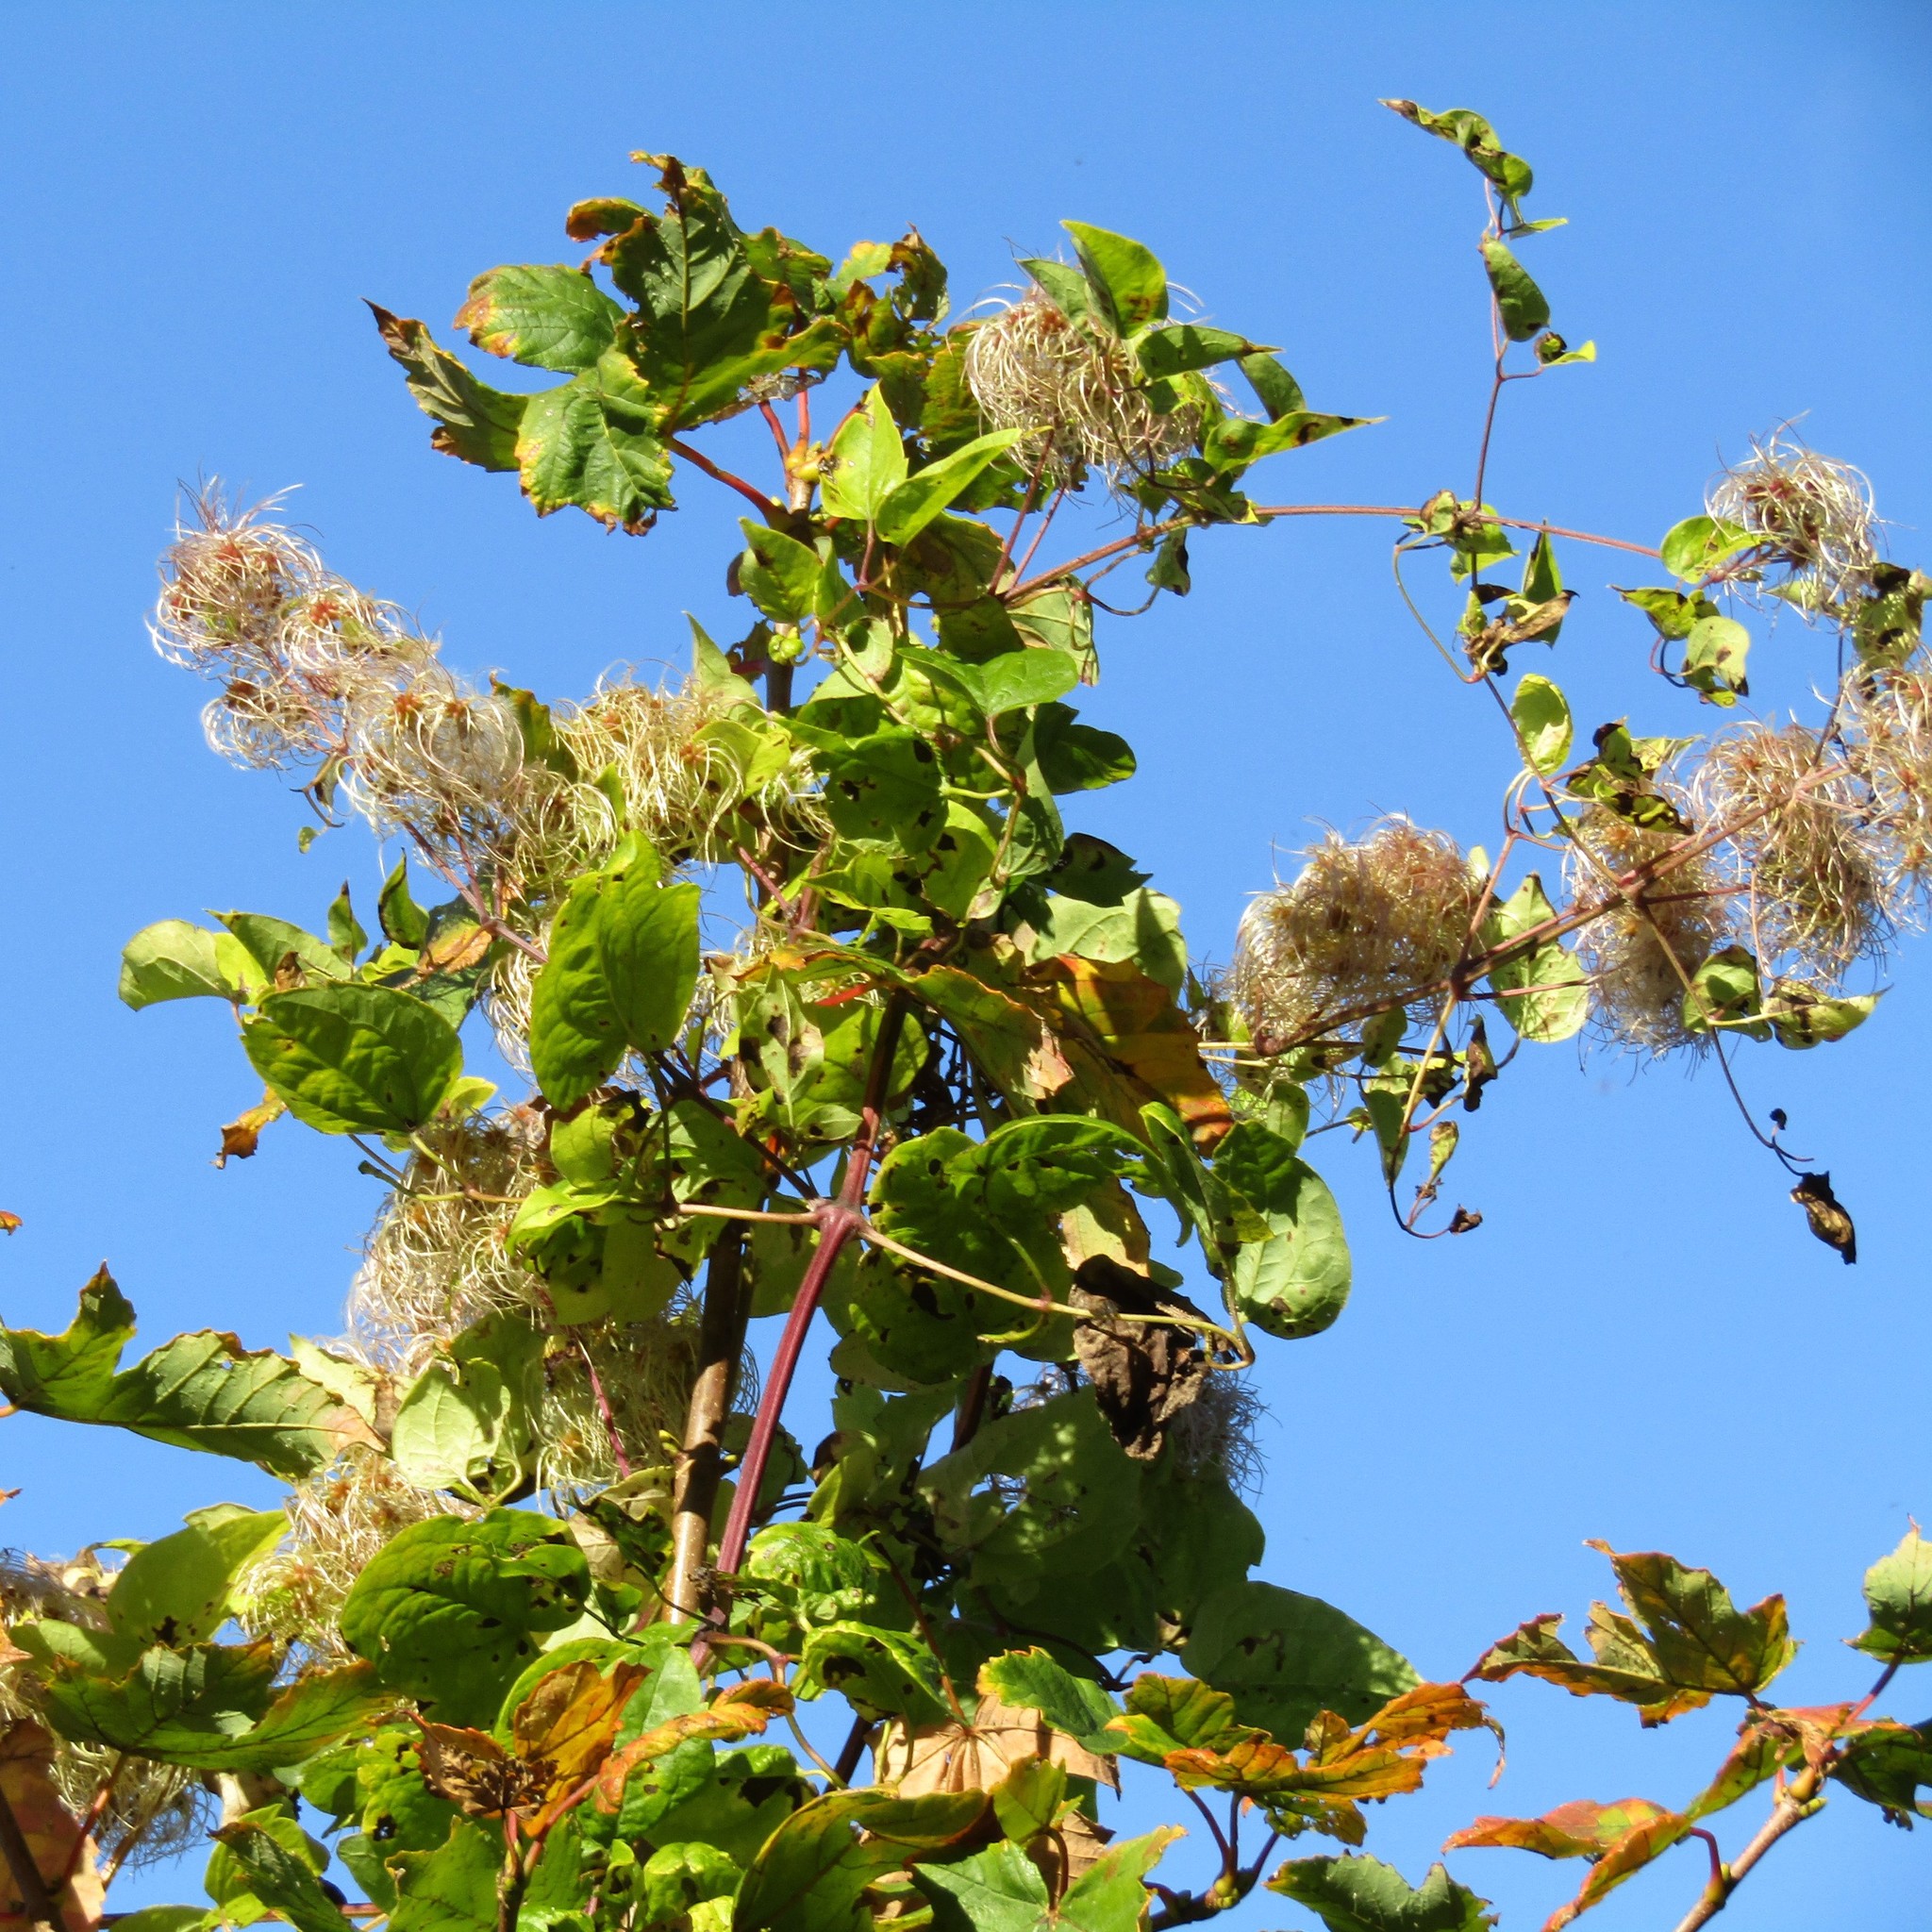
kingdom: Plantae
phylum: Tracheophyta
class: Magnoliopsida
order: Ranunculales
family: Ranunculaceae
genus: Clematis
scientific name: Clematis vitalba
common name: Evergreen clematis
